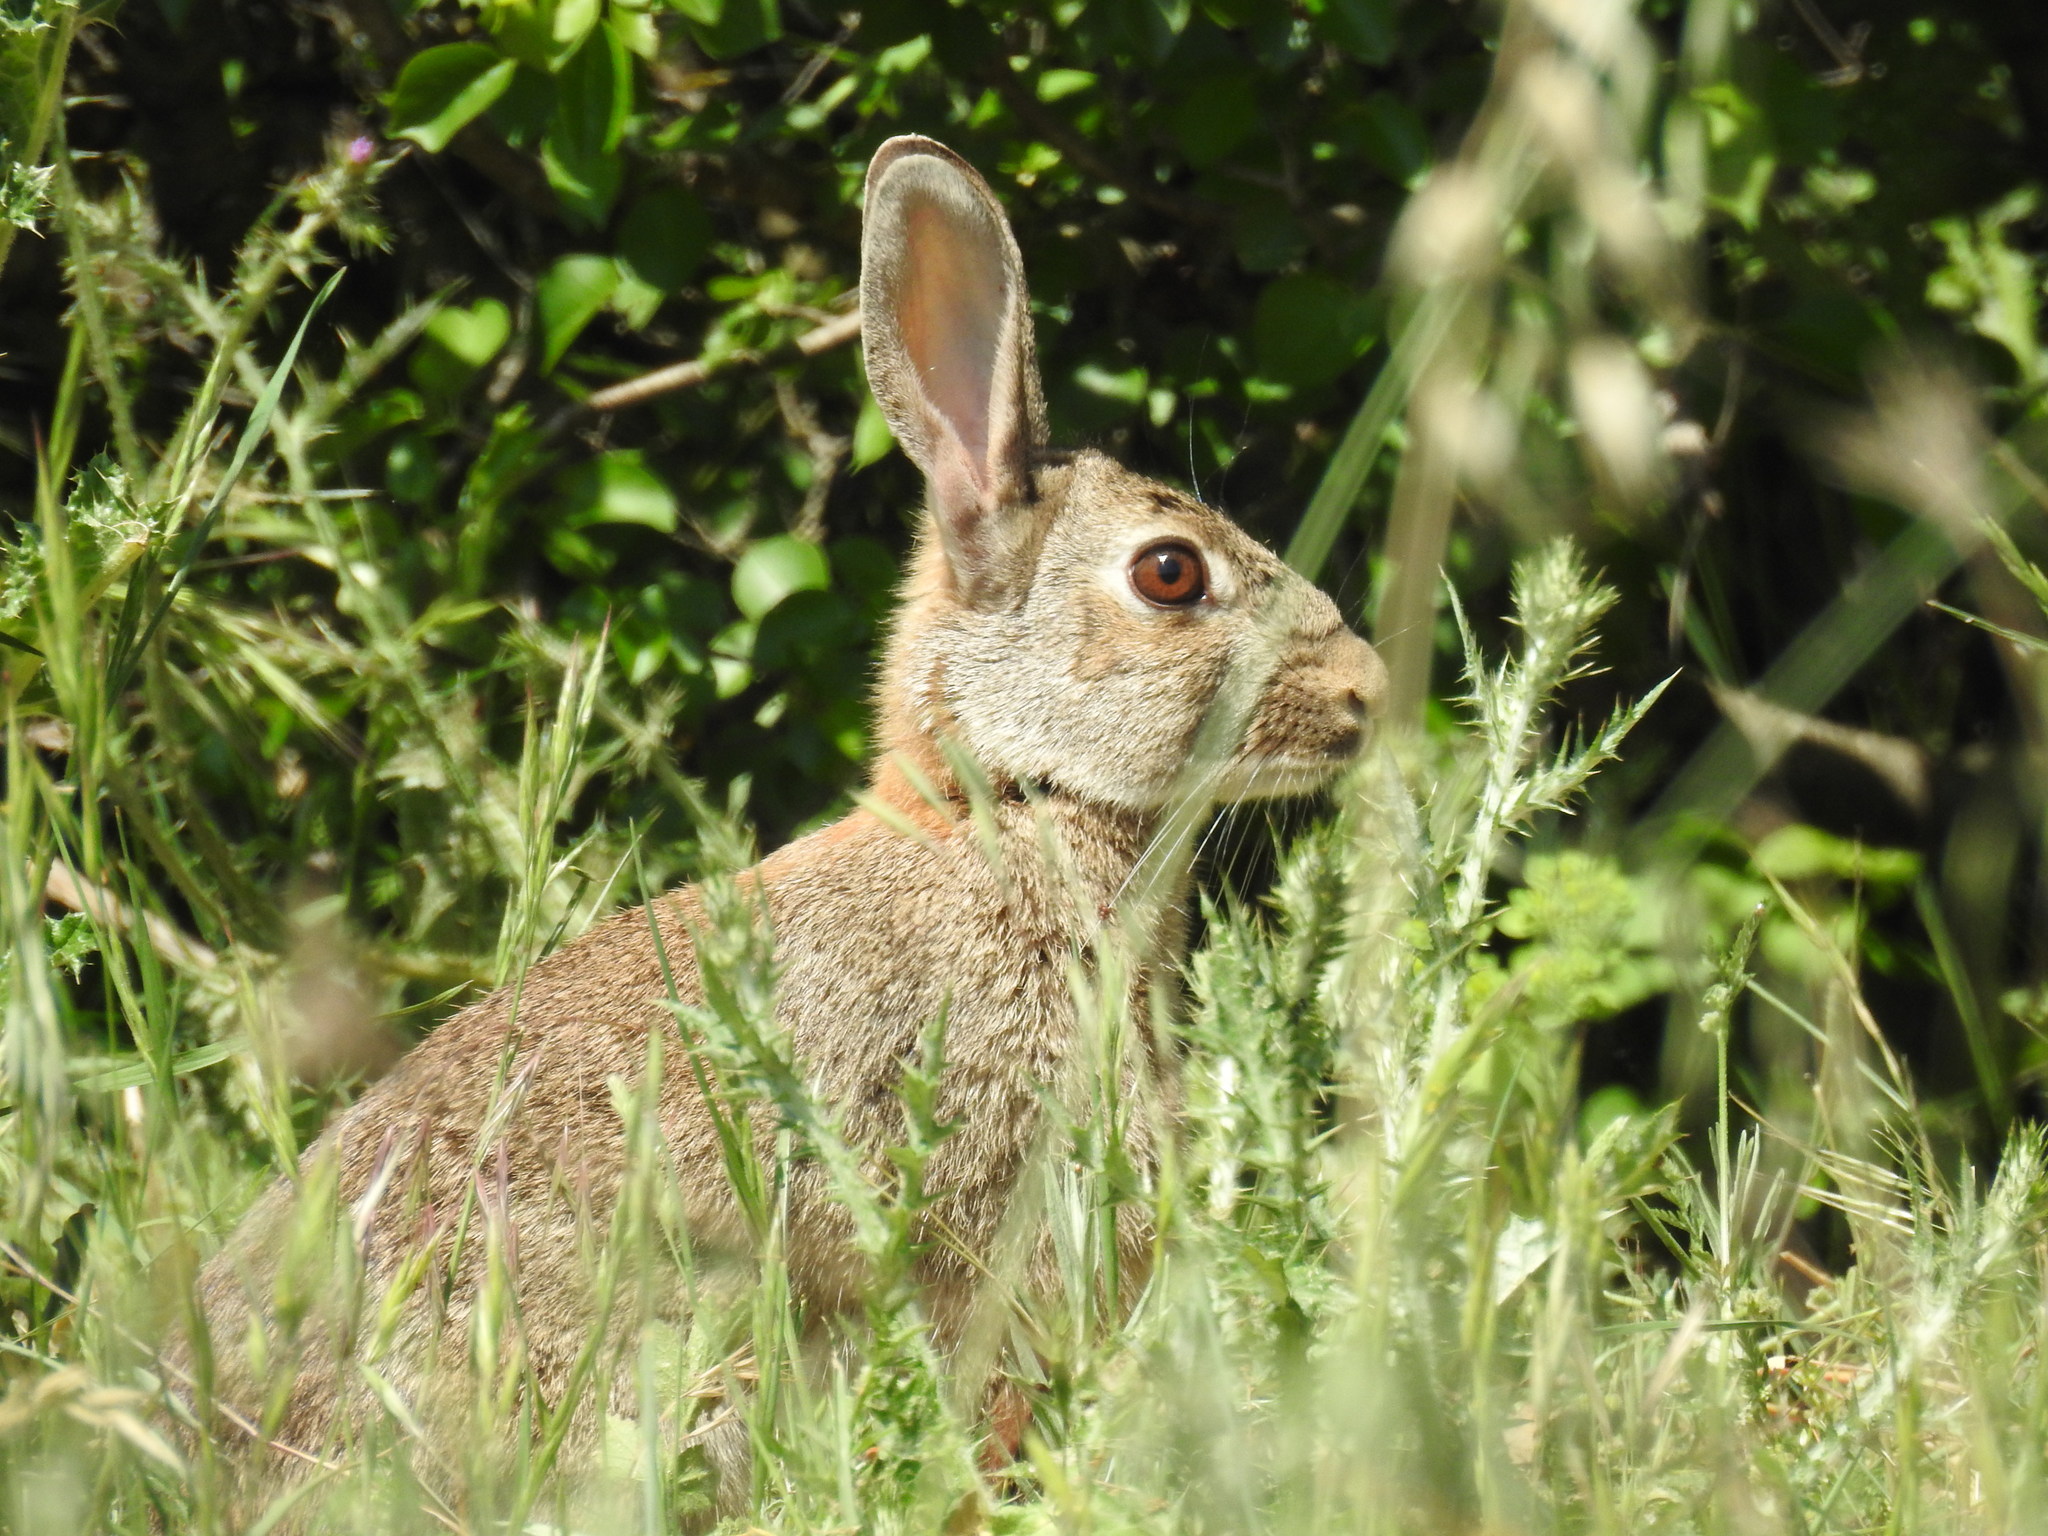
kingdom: Animalia
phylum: Chordata
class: Mammalia
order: Lagomorpha
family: Leporidae
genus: Oryctolagus
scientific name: Oryctolagus cuniculus
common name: European rabbit
